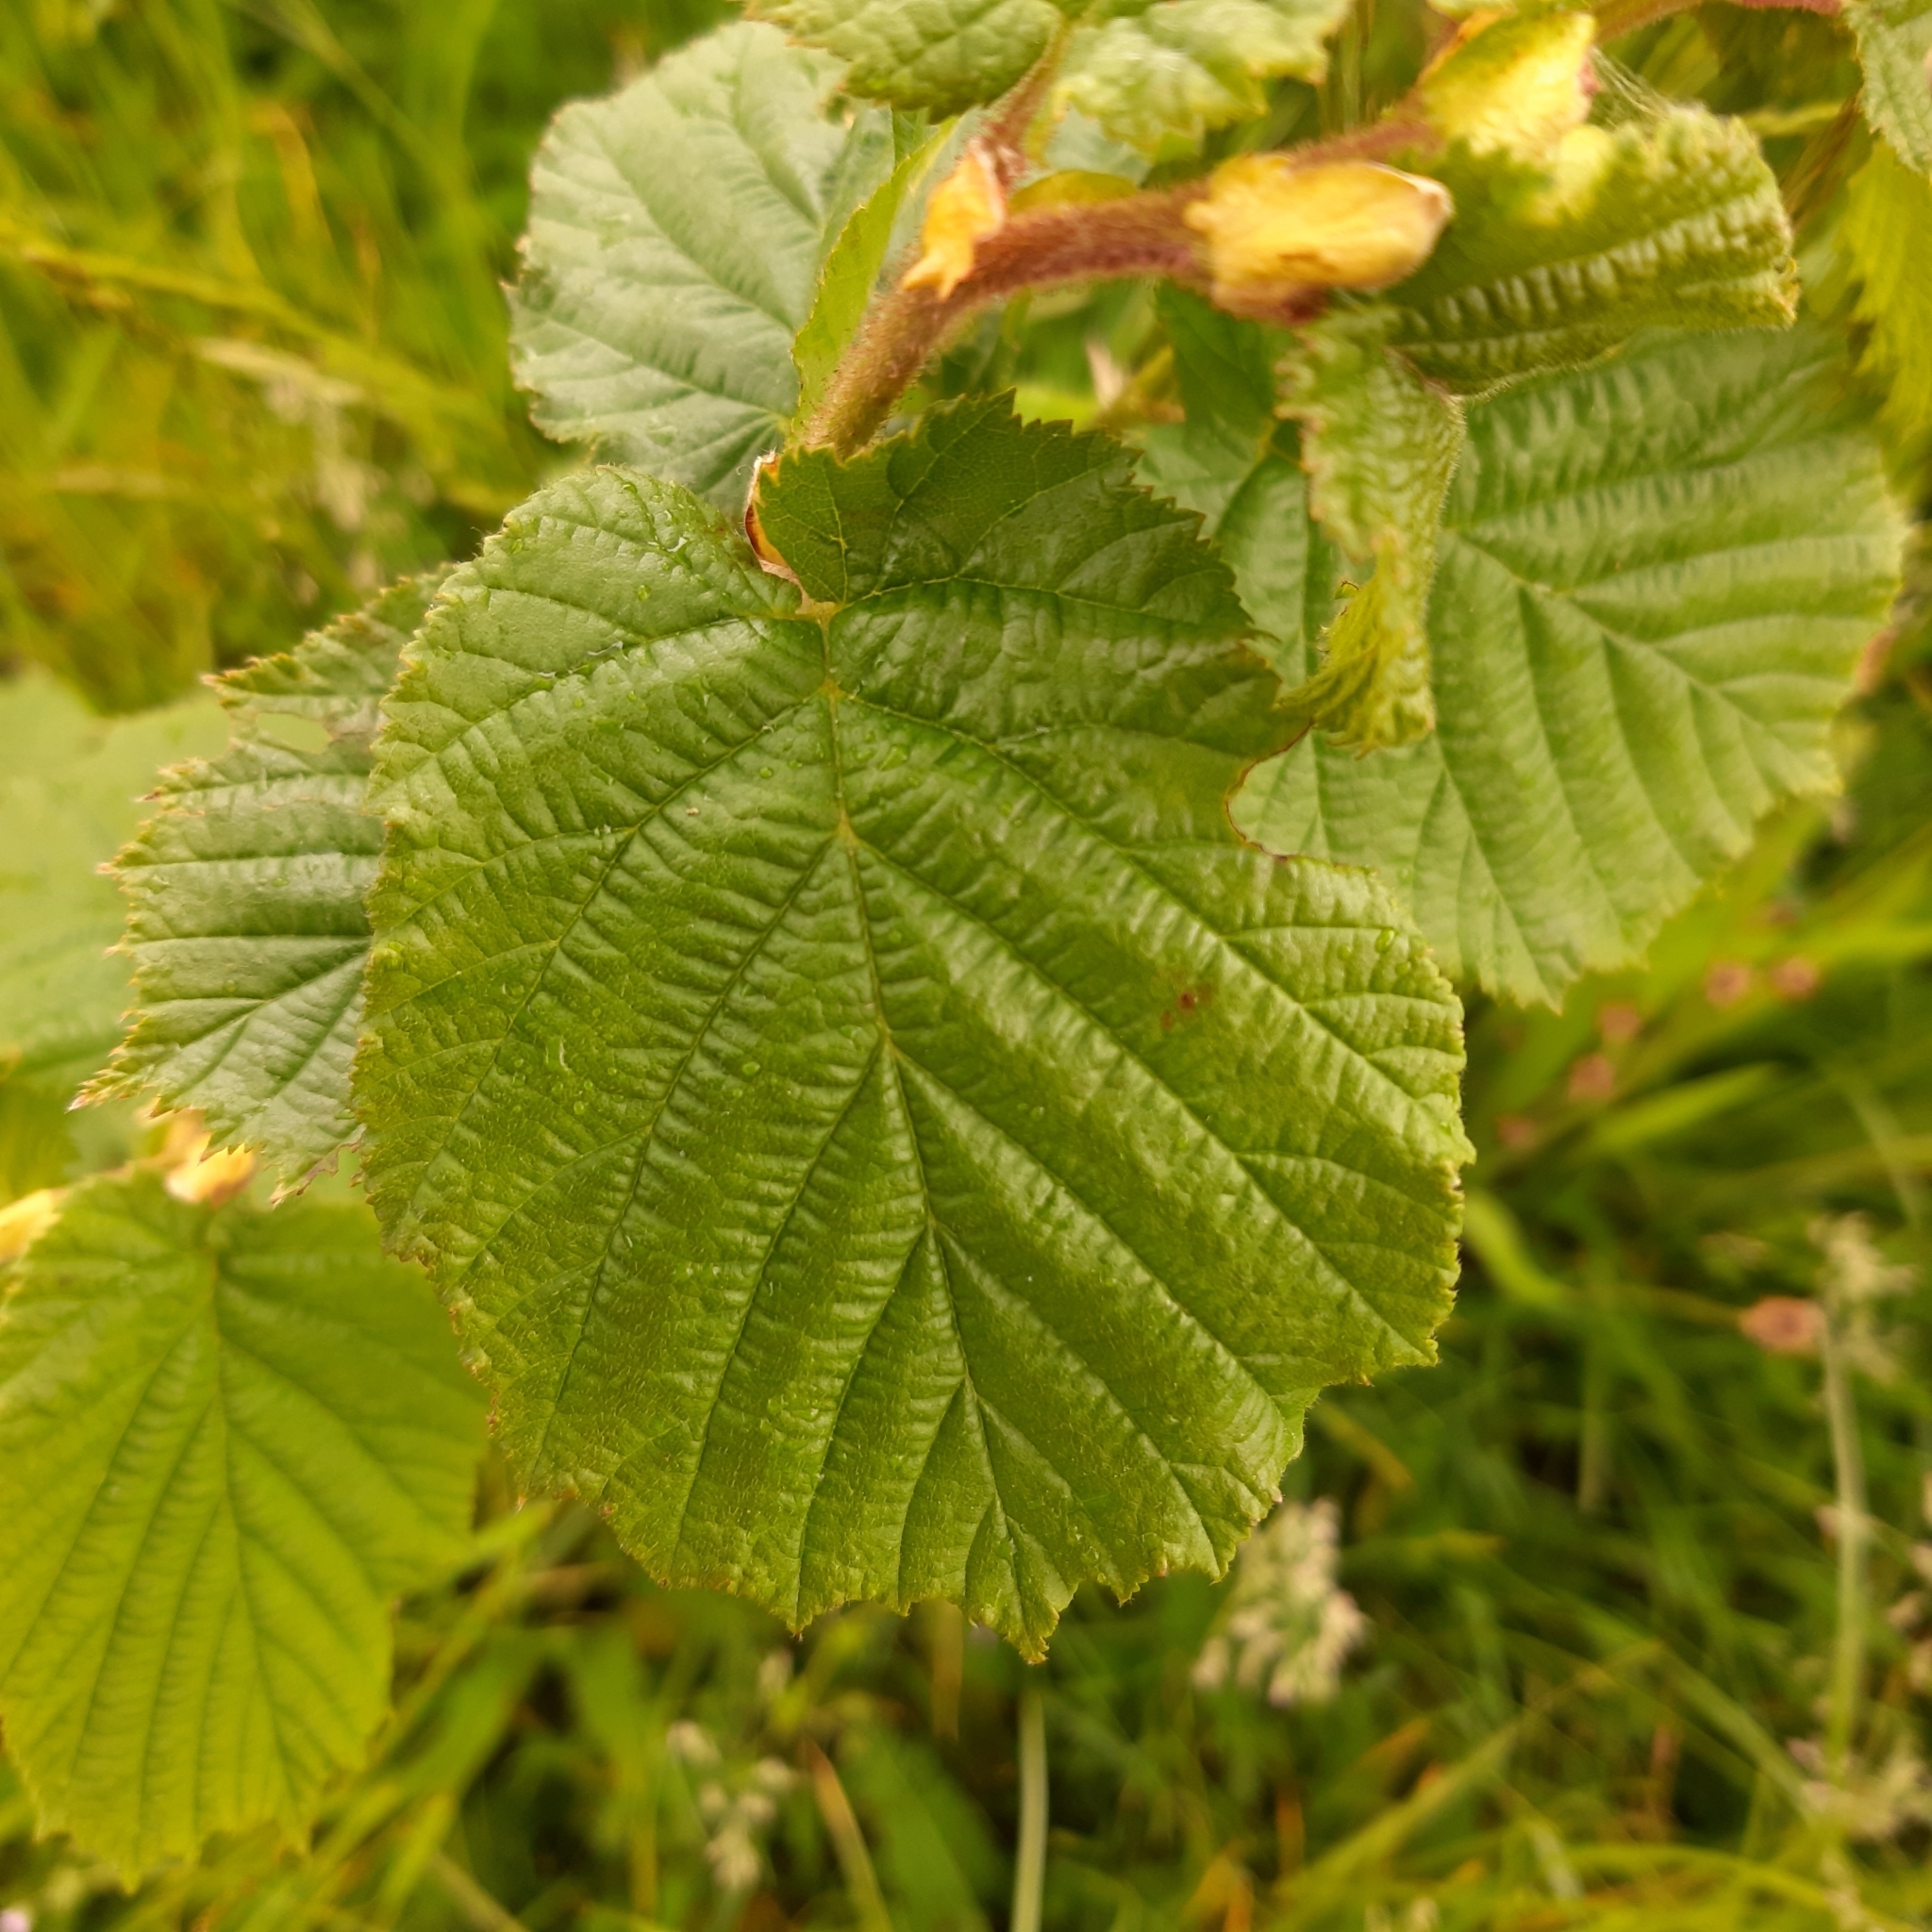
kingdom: Plantae
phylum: Tracheophyta
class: Magnoliopsida
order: Fagales
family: Betulaceae
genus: Corylus
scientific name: Corylus avellana
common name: European hazel
